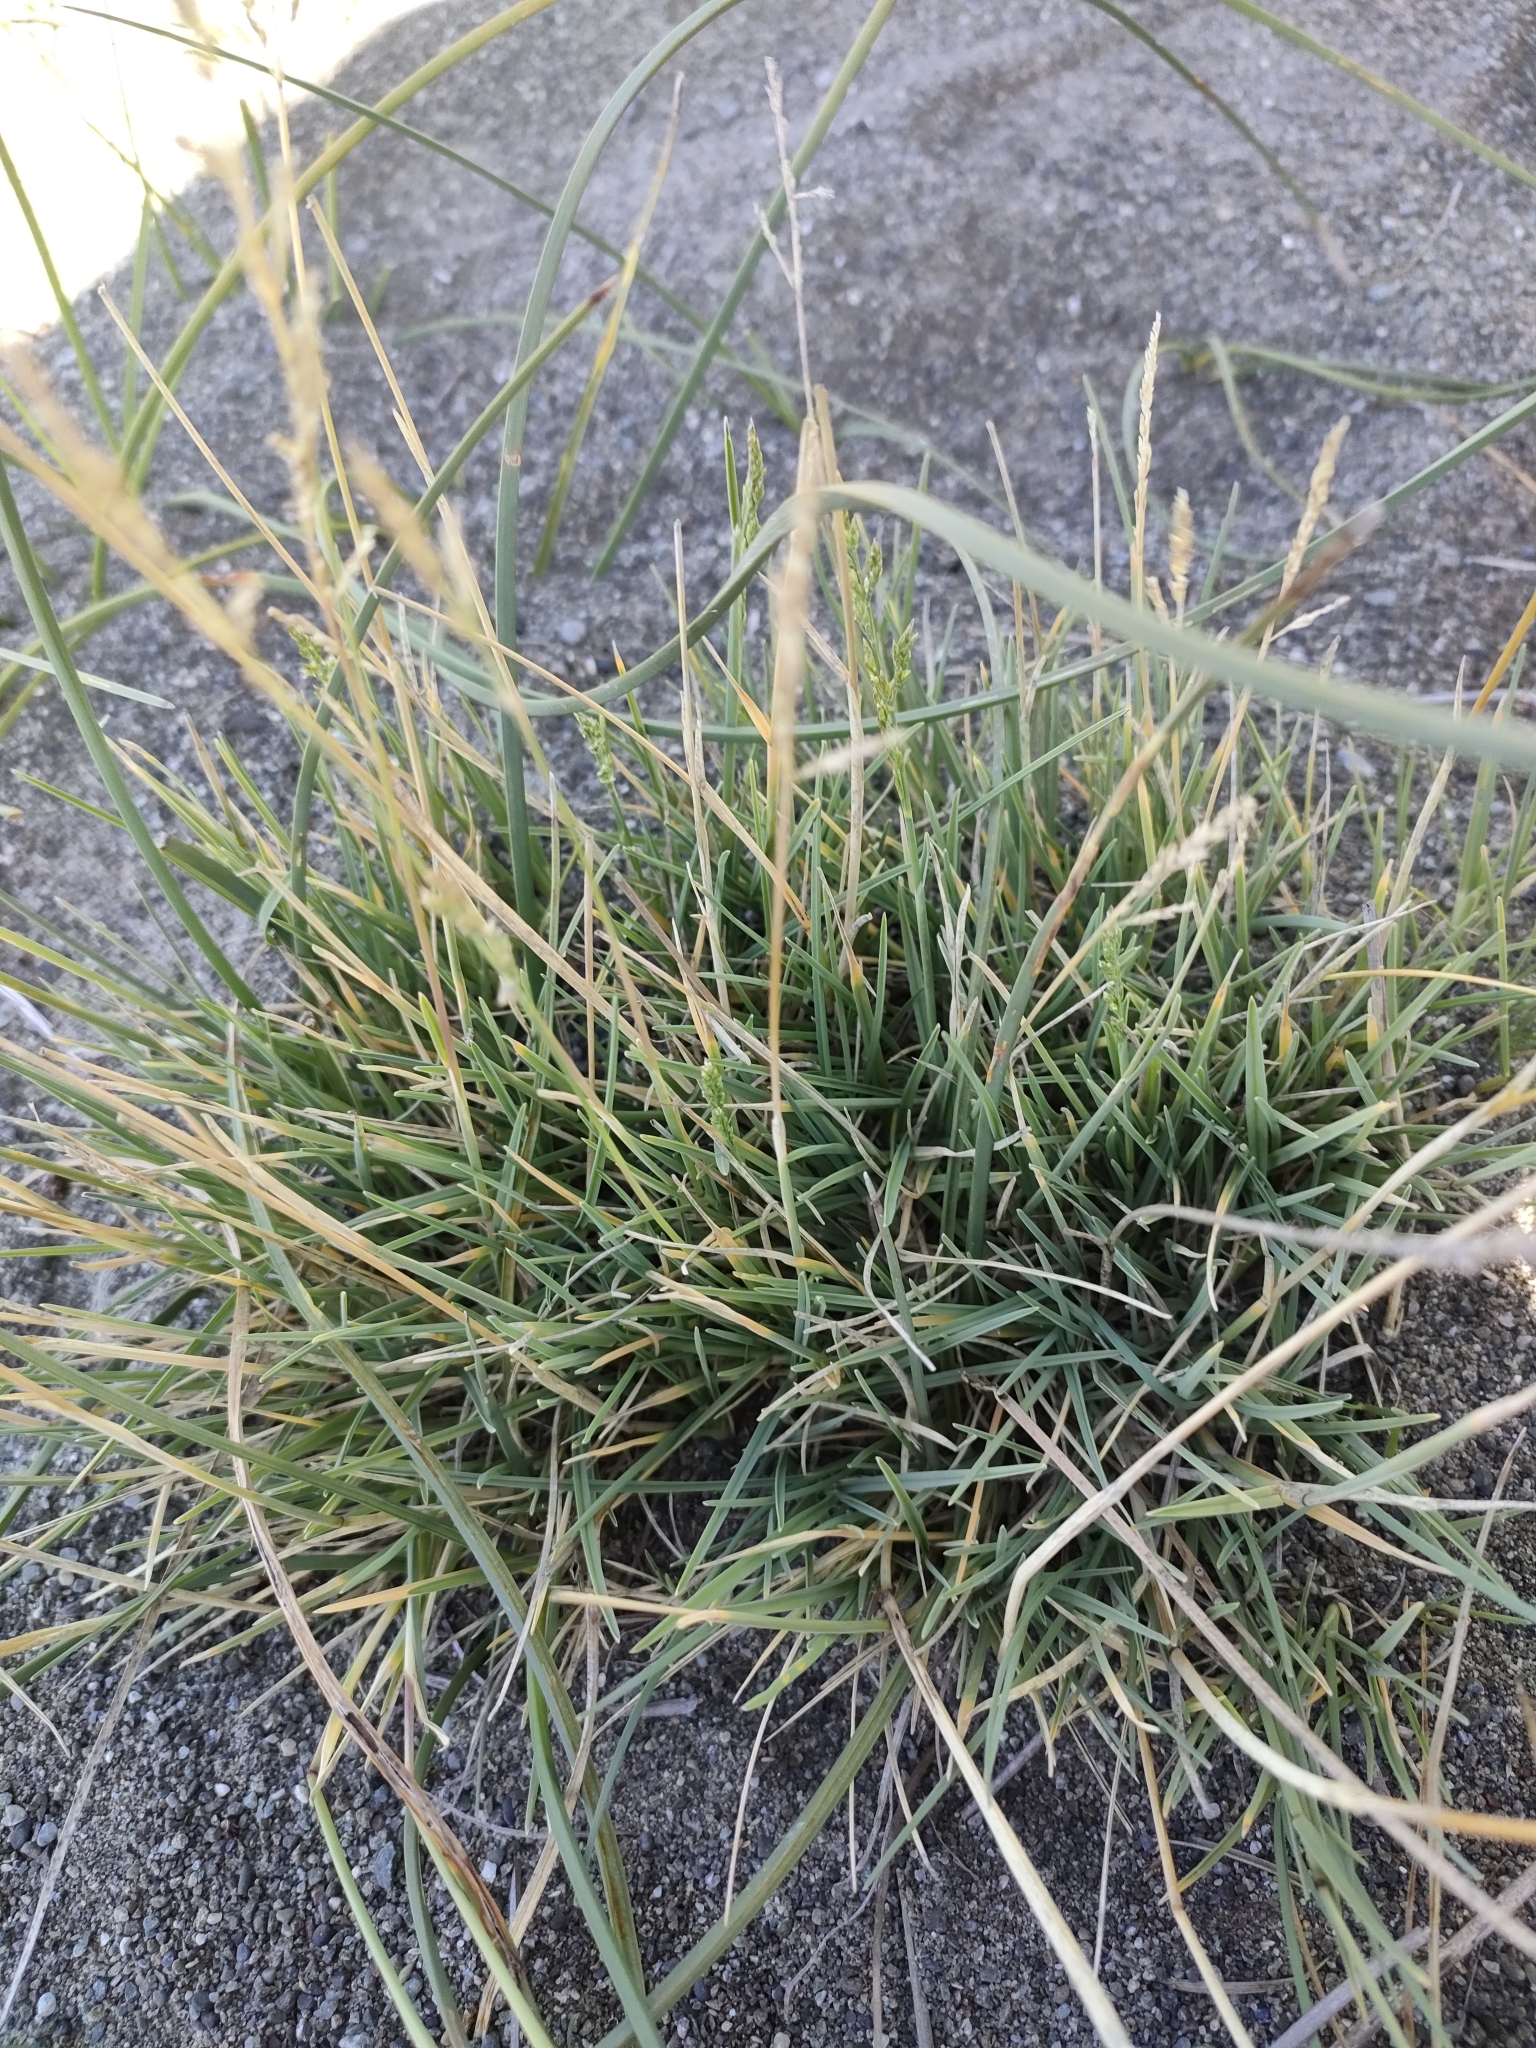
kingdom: Plantae
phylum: Tracheophyta
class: Liliopsida
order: Poales
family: Poaceae
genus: Puccinellia
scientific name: Puccinellia distans
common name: Weeping alkaligrass
